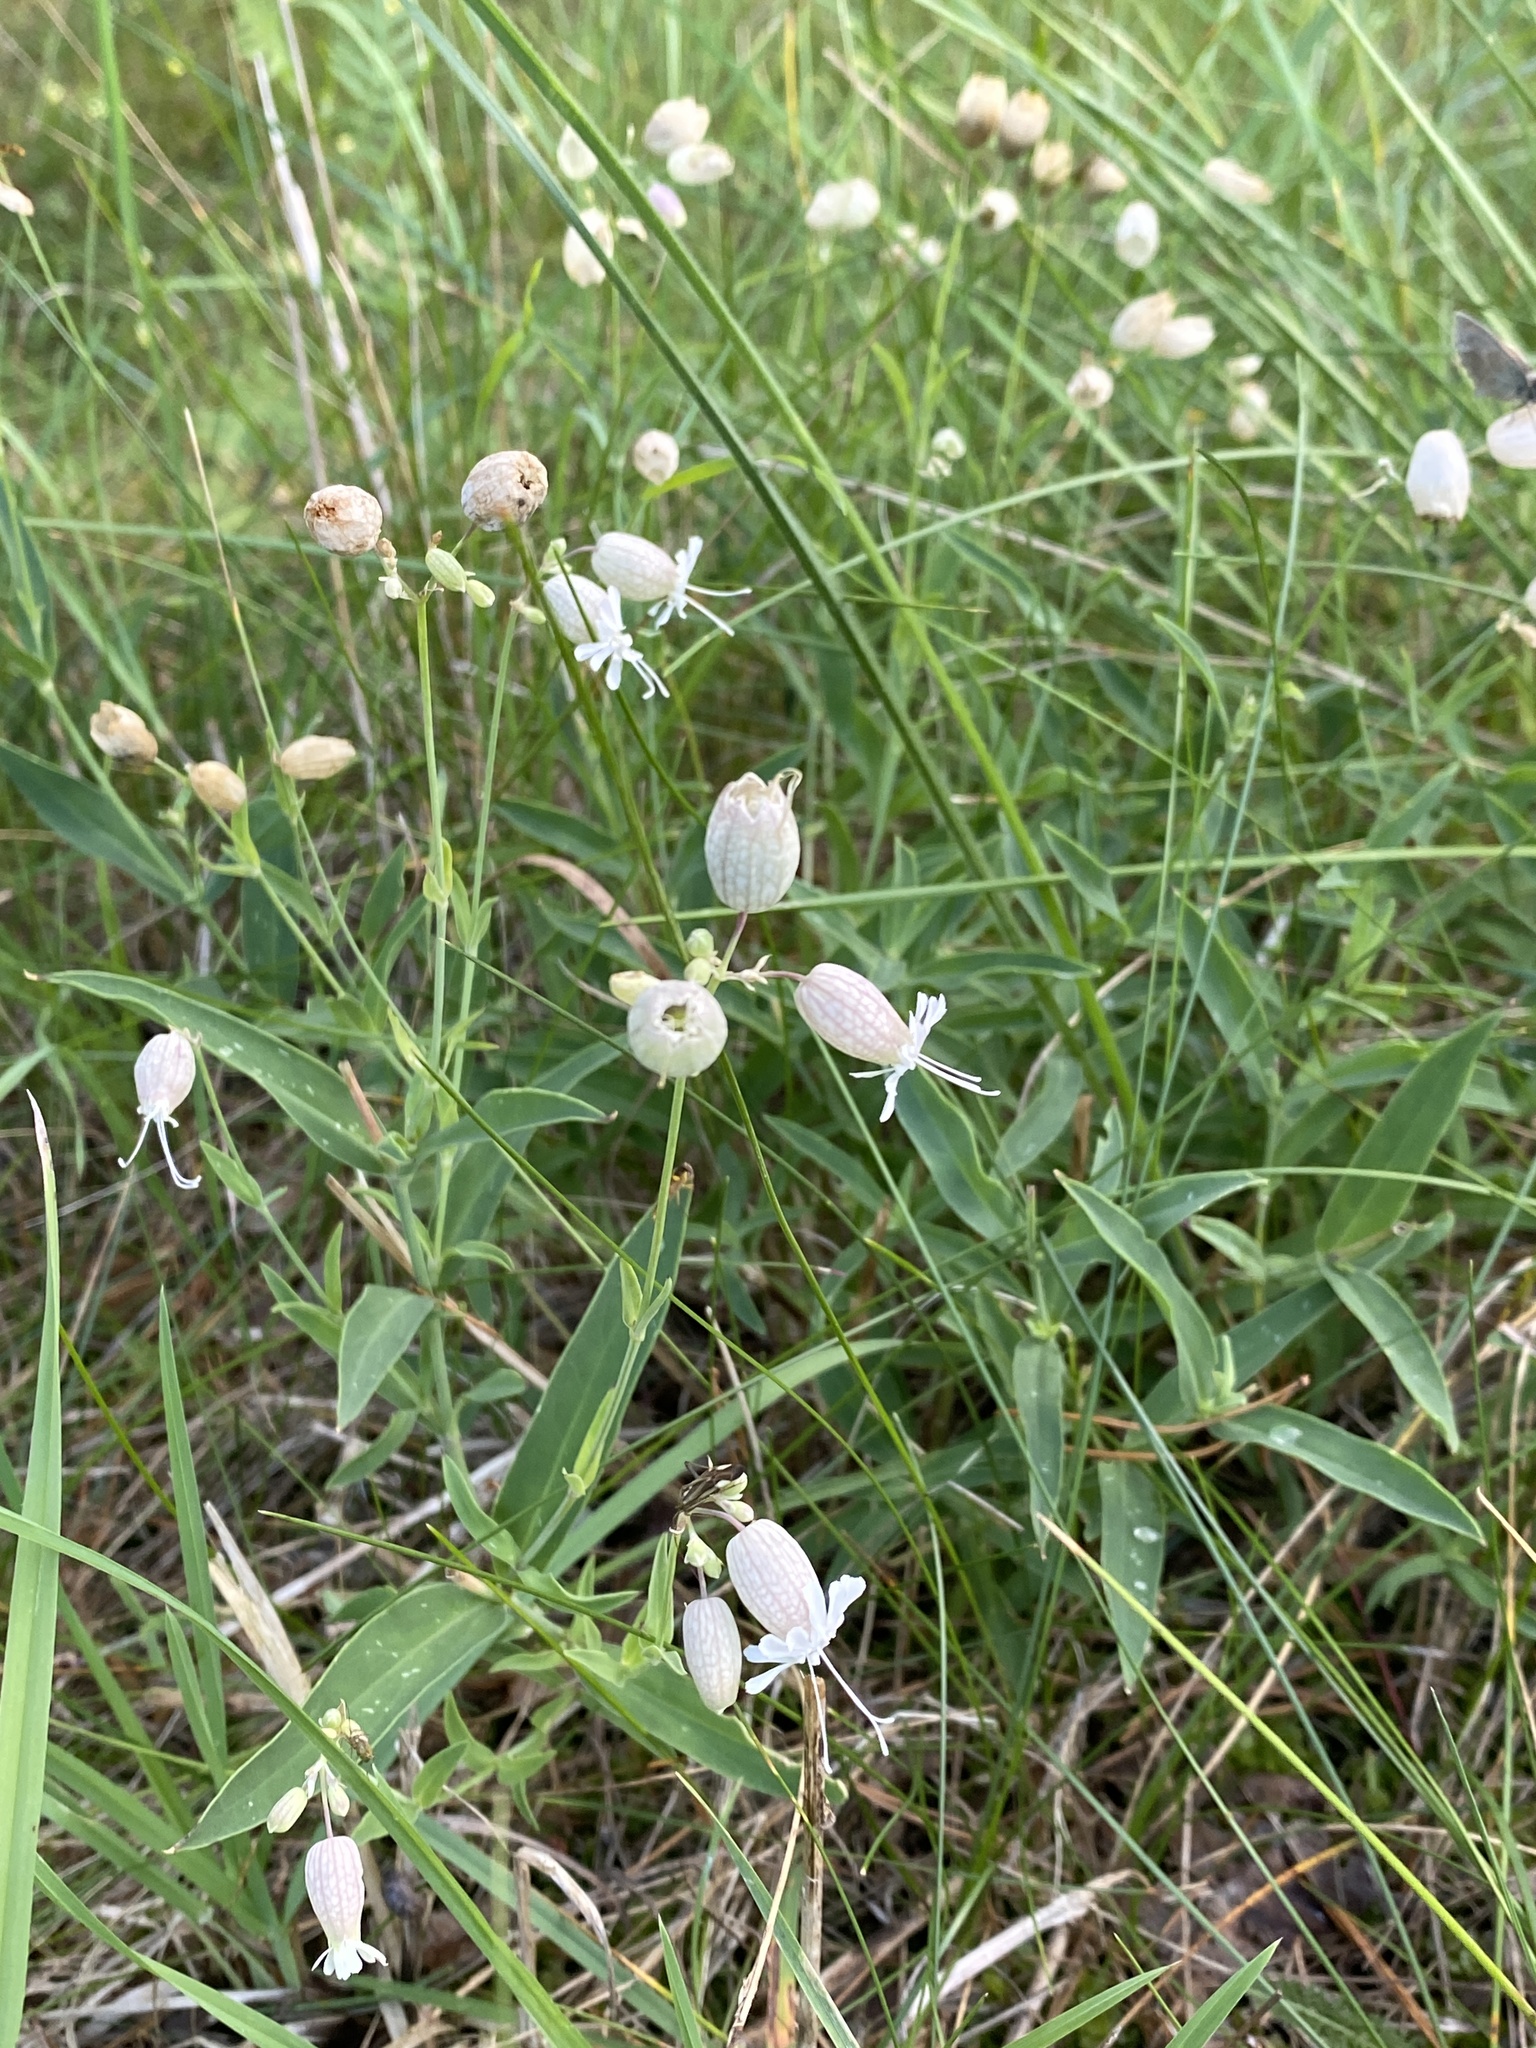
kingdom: Plantae
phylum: Tracheophyta
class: Magnoliopsida
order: Caryophyllales
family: Caryophyllaceae
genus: Silene
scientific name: Silene vulgaris
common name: Bladder campion
